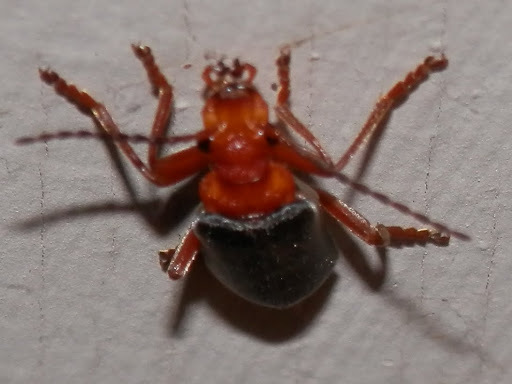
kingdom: Animalia
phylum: Arthropoda
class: Insecta
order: Coleoptera
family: Cantharidae
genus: Podabrus
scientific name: Podabrus pruinosus
